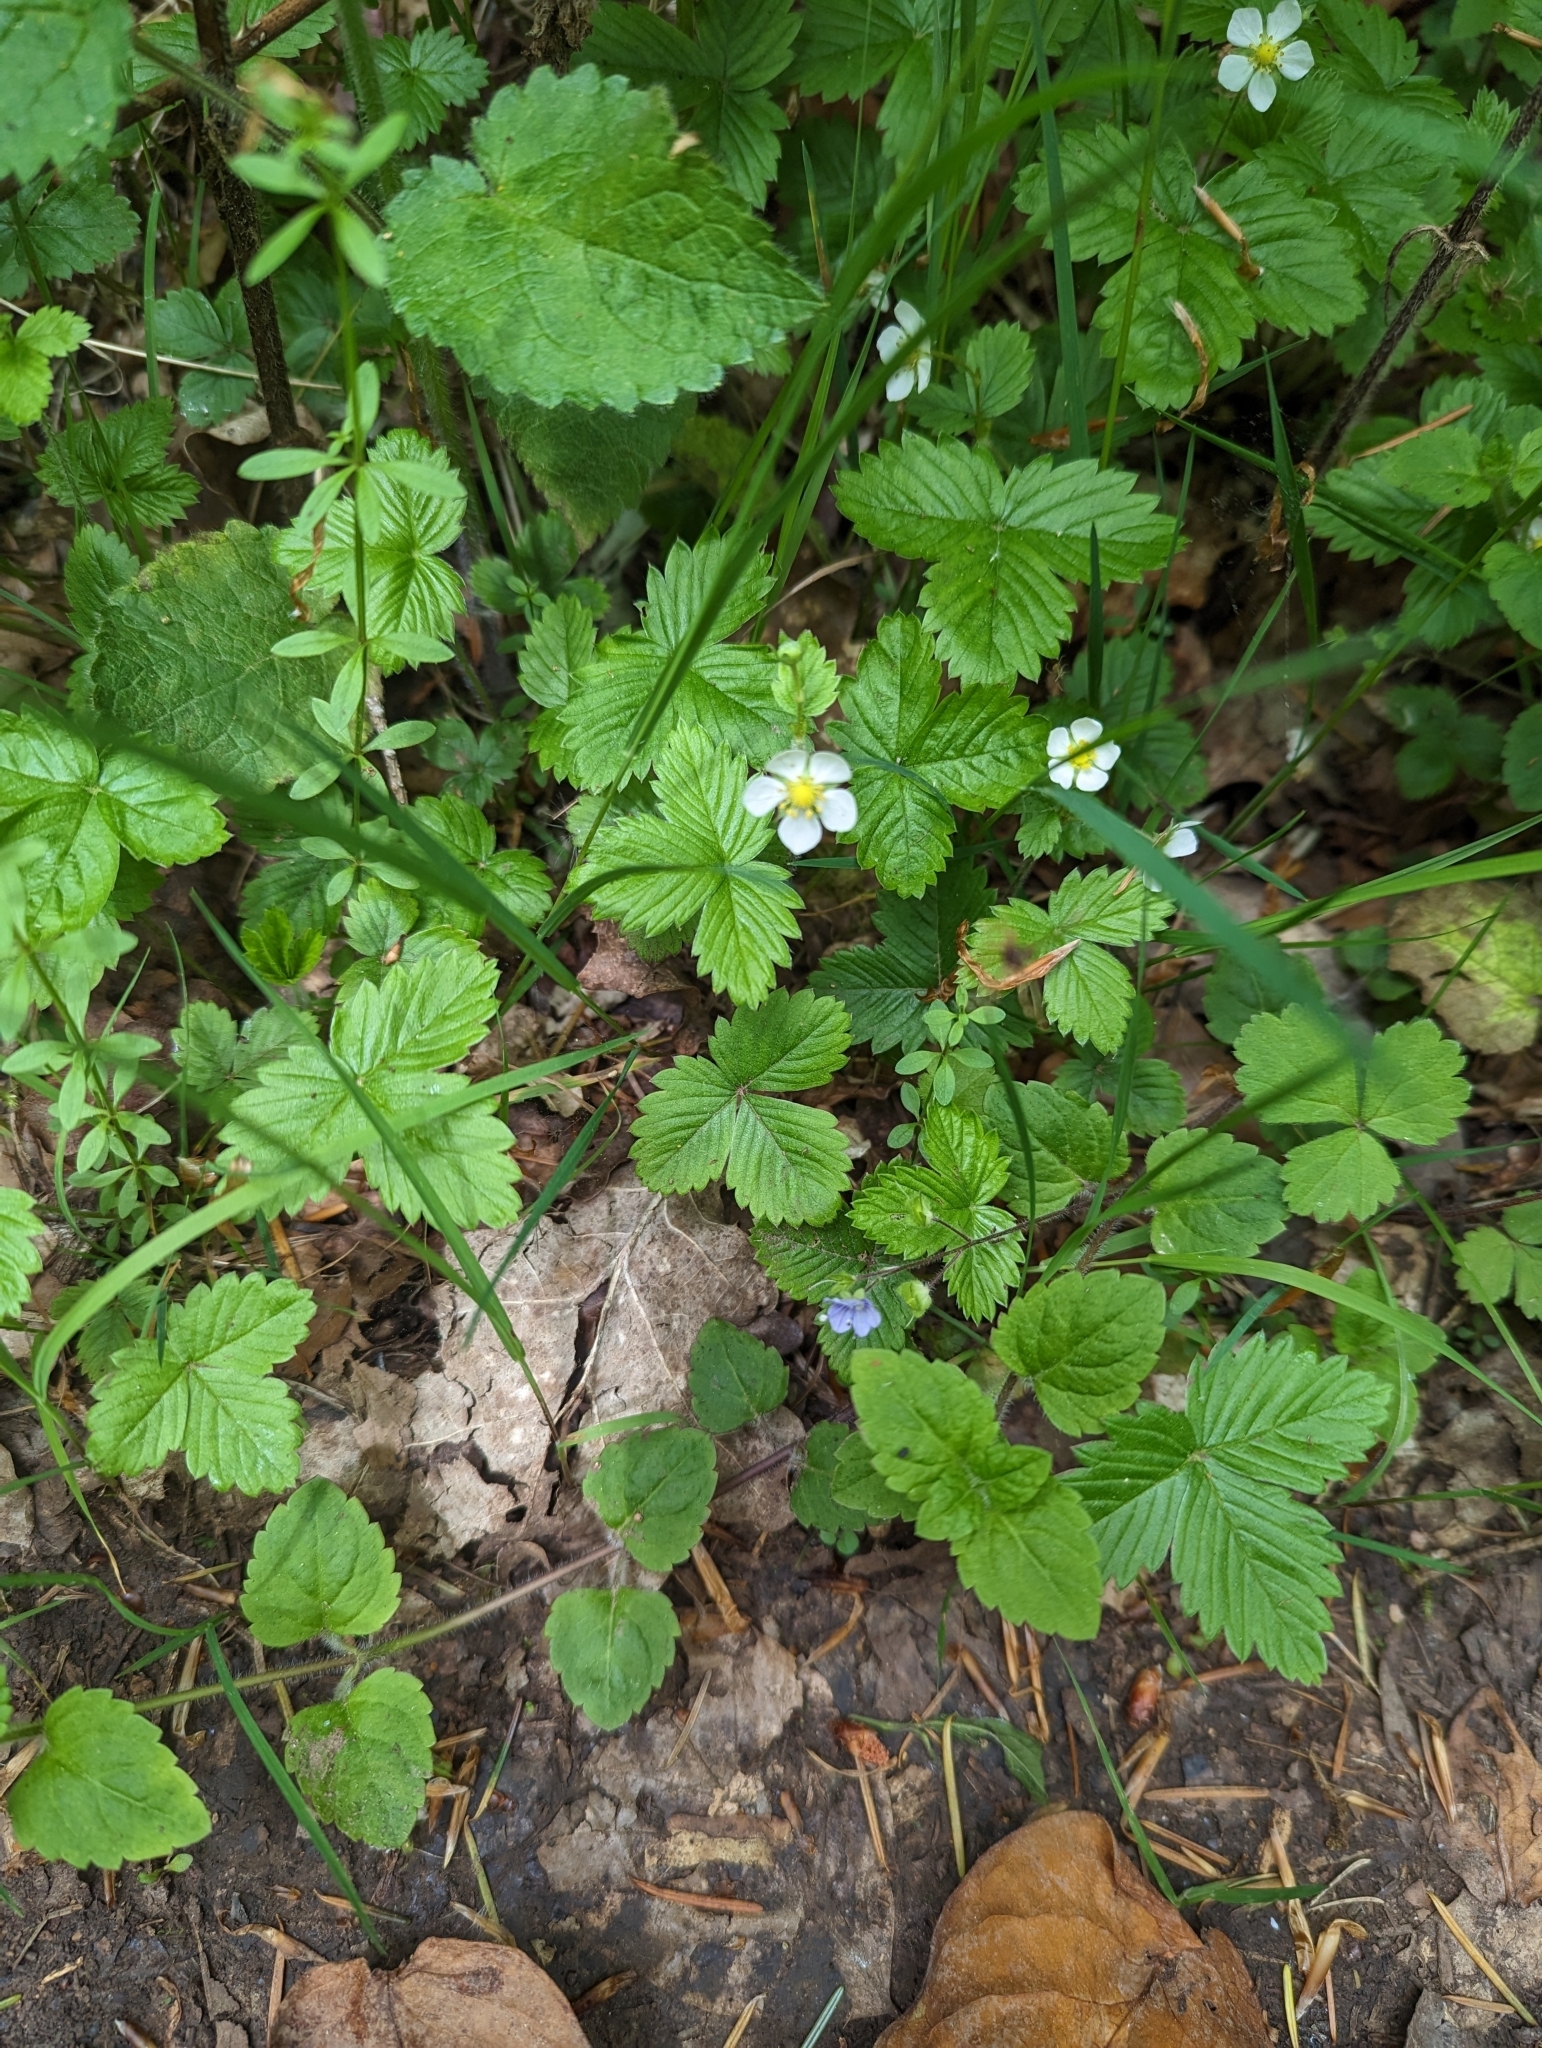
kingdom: Plantae
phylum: Tracheophyta
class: Magnoliopsida
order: Rosales
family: Rosaceae
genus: Fragaria
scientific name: Fragaria vesca
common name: Wild strawberry
